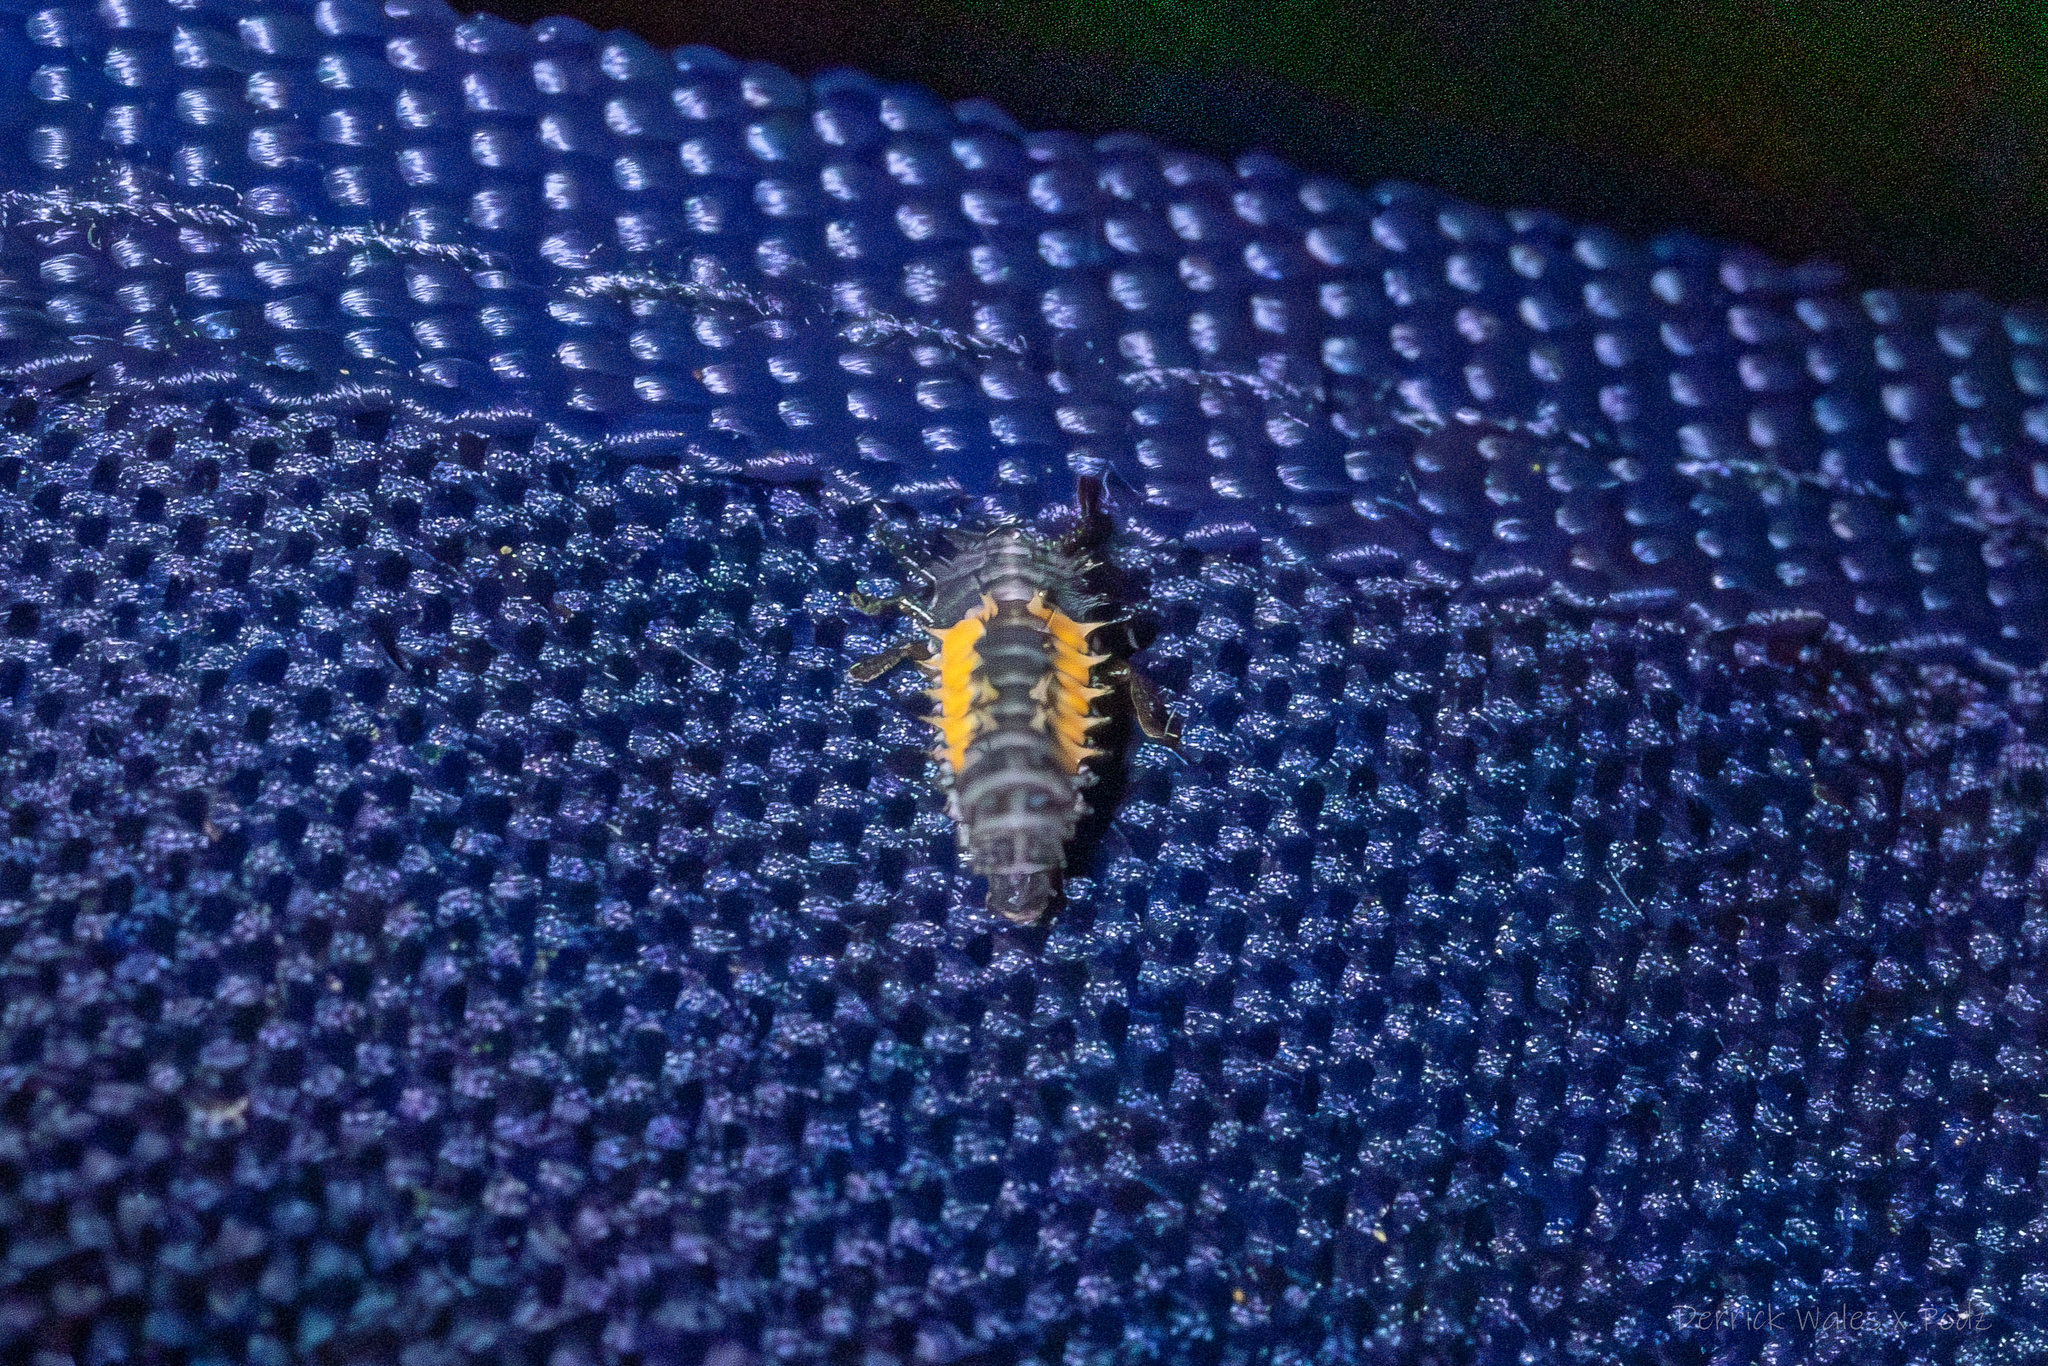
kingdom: Animalia
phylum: Arthropoda
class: Insecta
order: Coleoptera
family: Coccinellidae
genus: Harmonia
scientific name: Harmonia axyridis
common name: Harlequin ladybird
